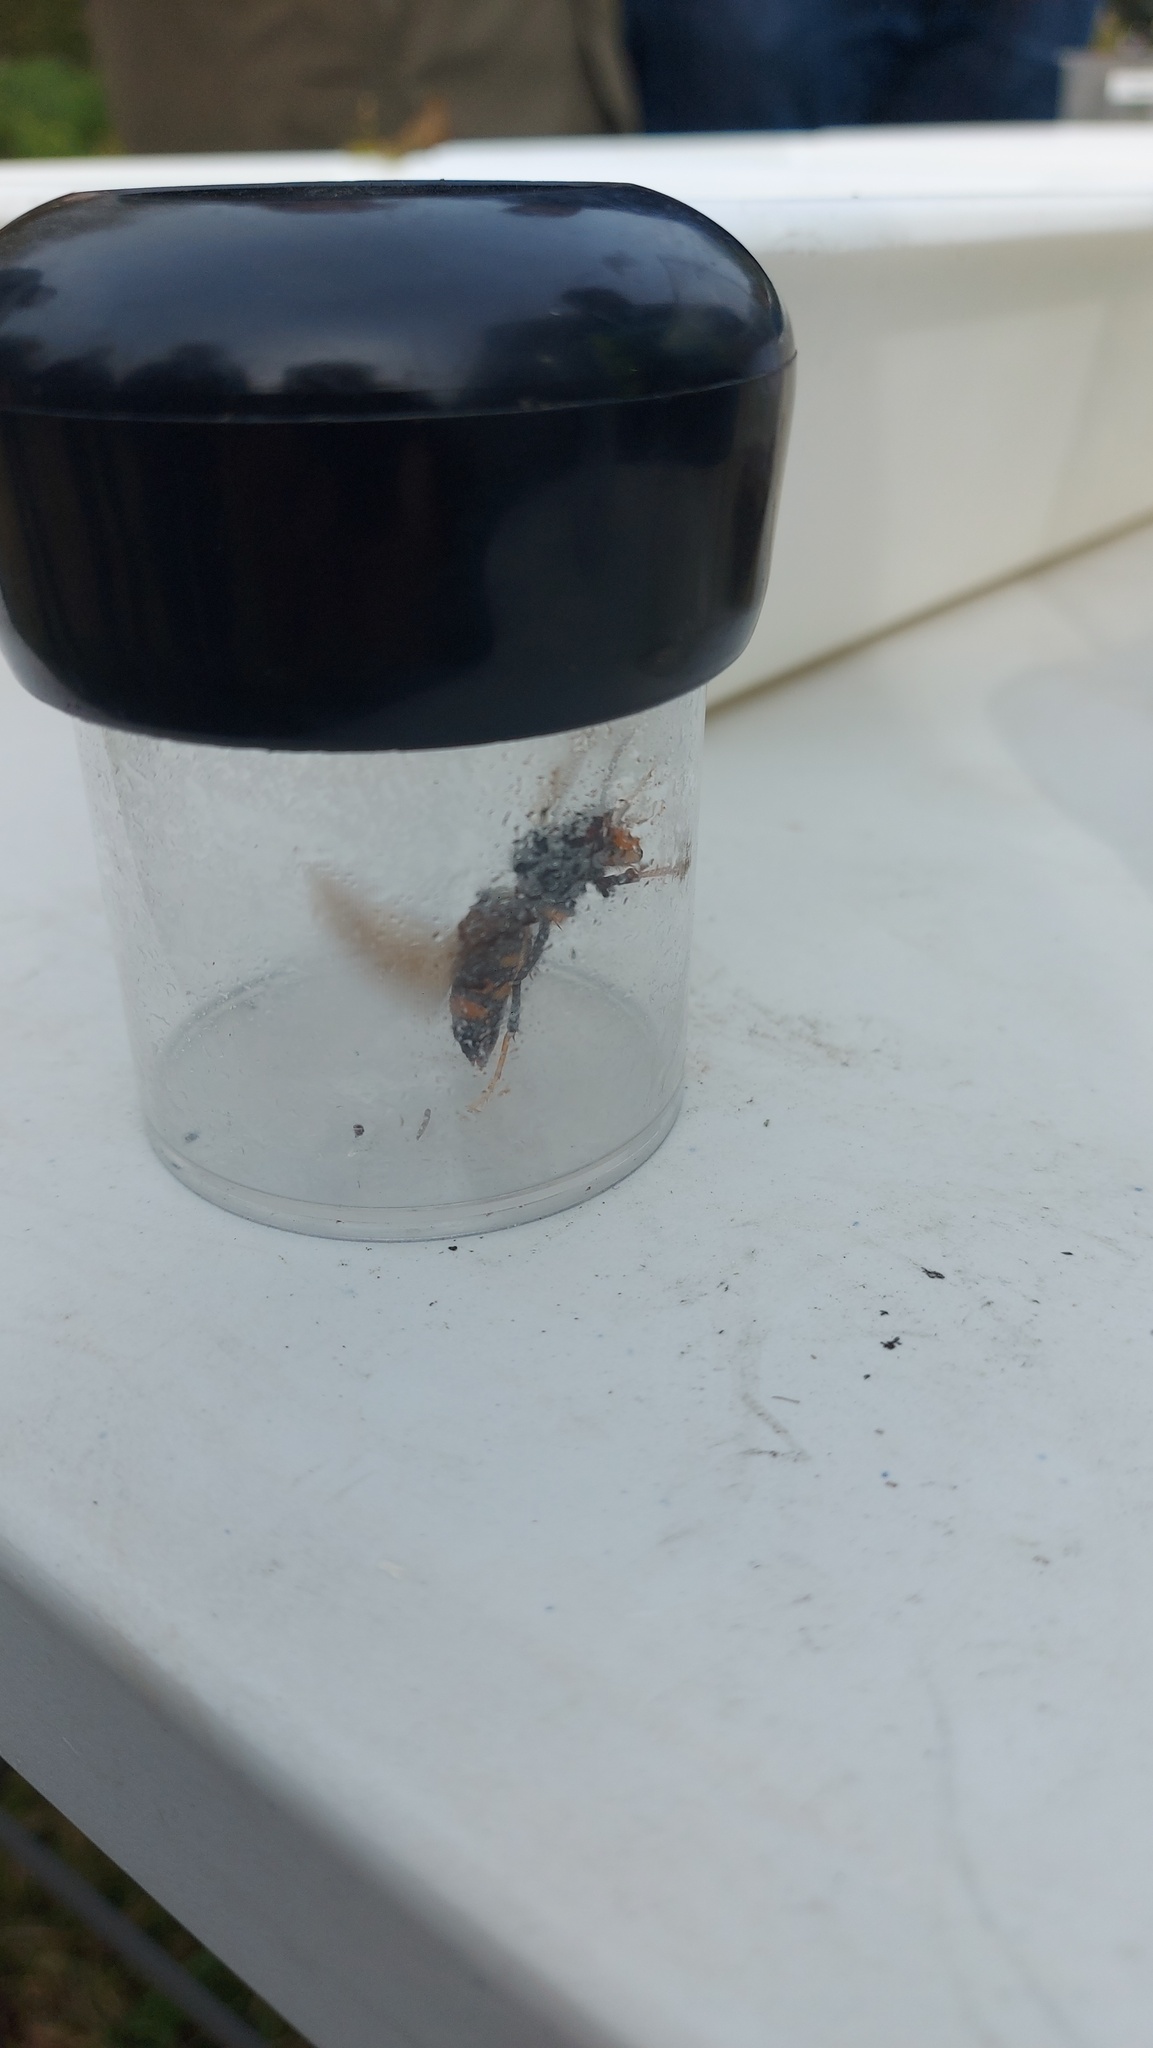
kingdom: Animalia
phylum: Arthropoda
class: Insecta
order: Hymenoptera
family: Vespidae
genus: Vespa
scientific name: Vespa velutina
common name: Asian hornet
